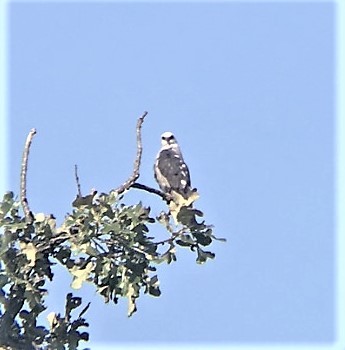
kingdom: Animalia
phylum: Chordata
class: Aves
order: Accipitriformes
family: Accipitridae
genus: Ictinia
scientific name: Ictinia mississippiensis
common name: Mississippi kite
